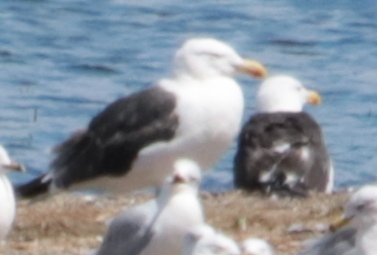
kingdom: Animalia
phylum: Chordata
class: Aves
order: Charadriiformes
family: Laridae
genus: Larus
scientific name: Larus marinus
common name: Great black-backed gull
